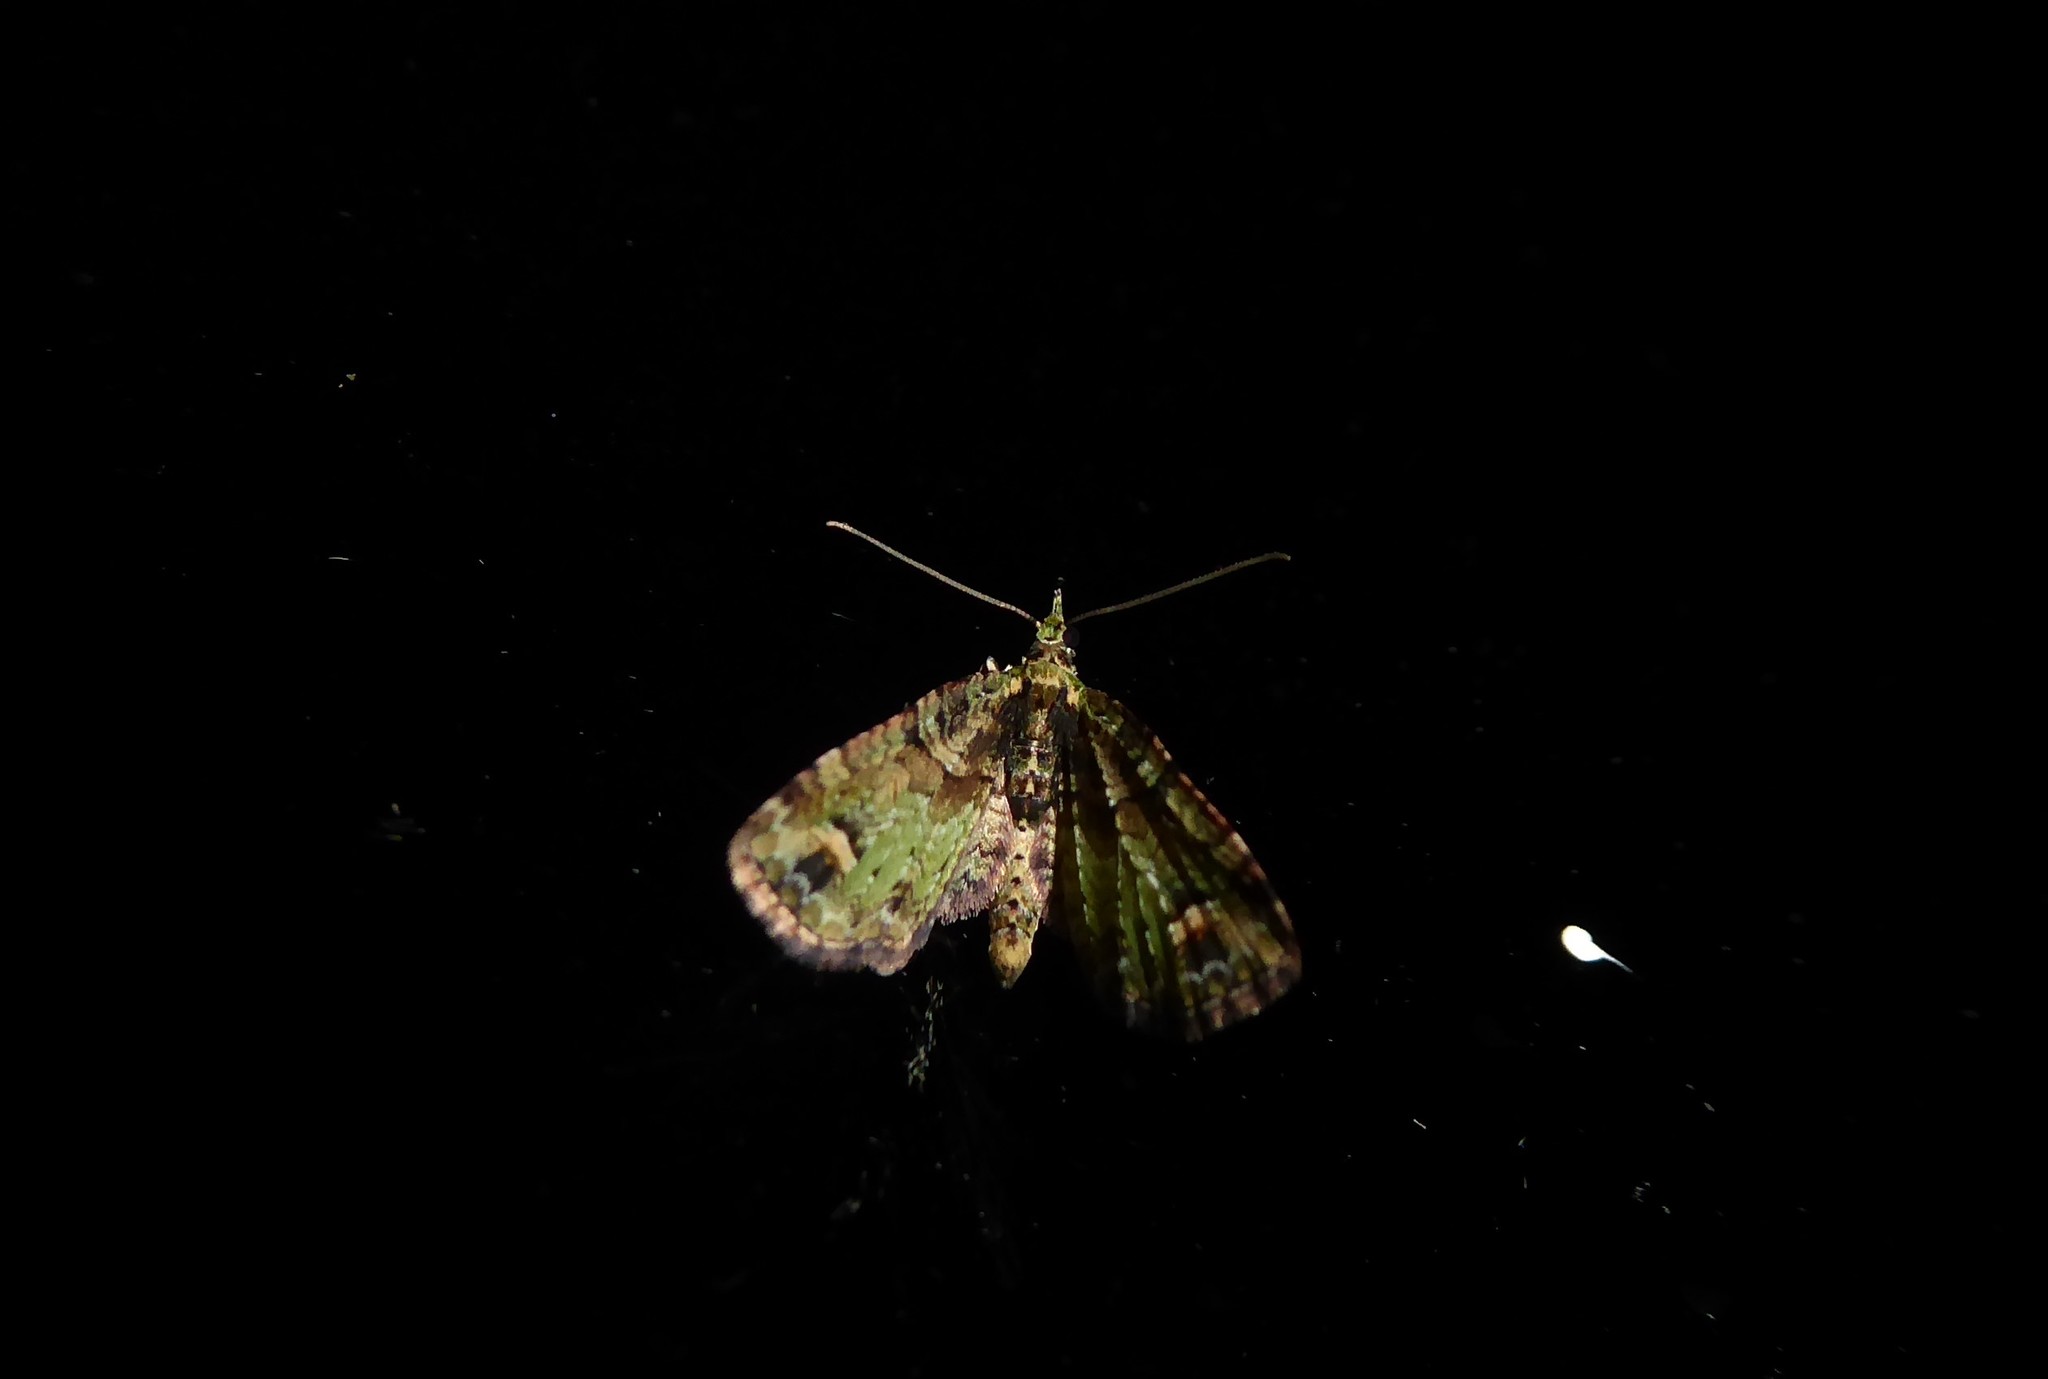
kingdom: Animalia
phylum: Arthropoda
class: Insecta
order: Lepidoptera
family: Geometridae
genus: Idaea
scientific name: Idaea mutanda
